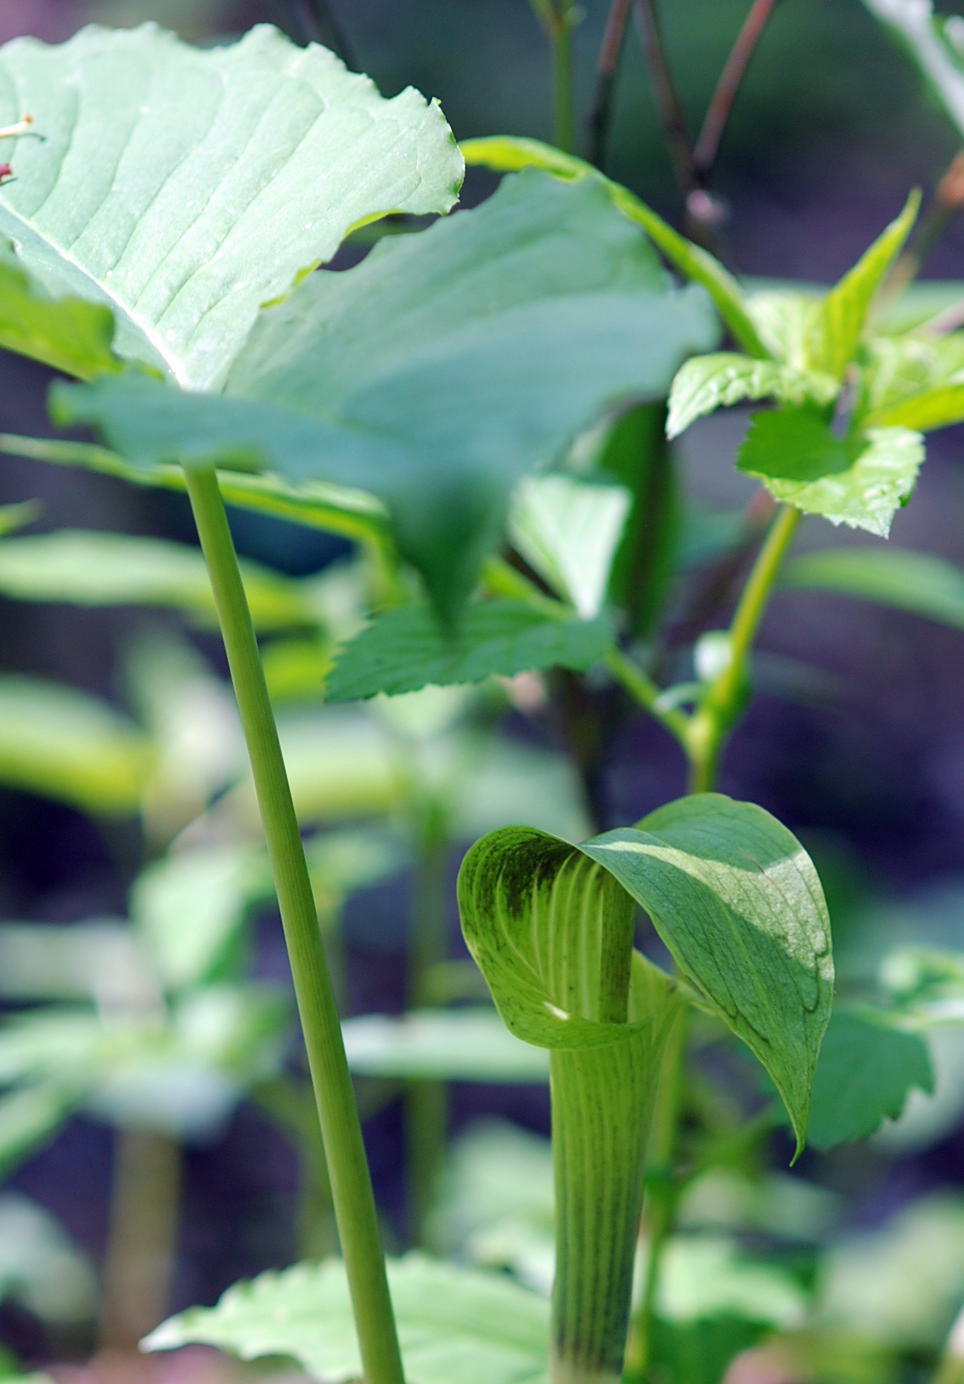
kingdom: Plantae
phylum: Tracheophyta
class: Liliopsida
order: Alismatales
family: Araceae
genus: Arisaema
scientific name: Arisaema triphyllum
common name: Jack-in-the-pulpit
